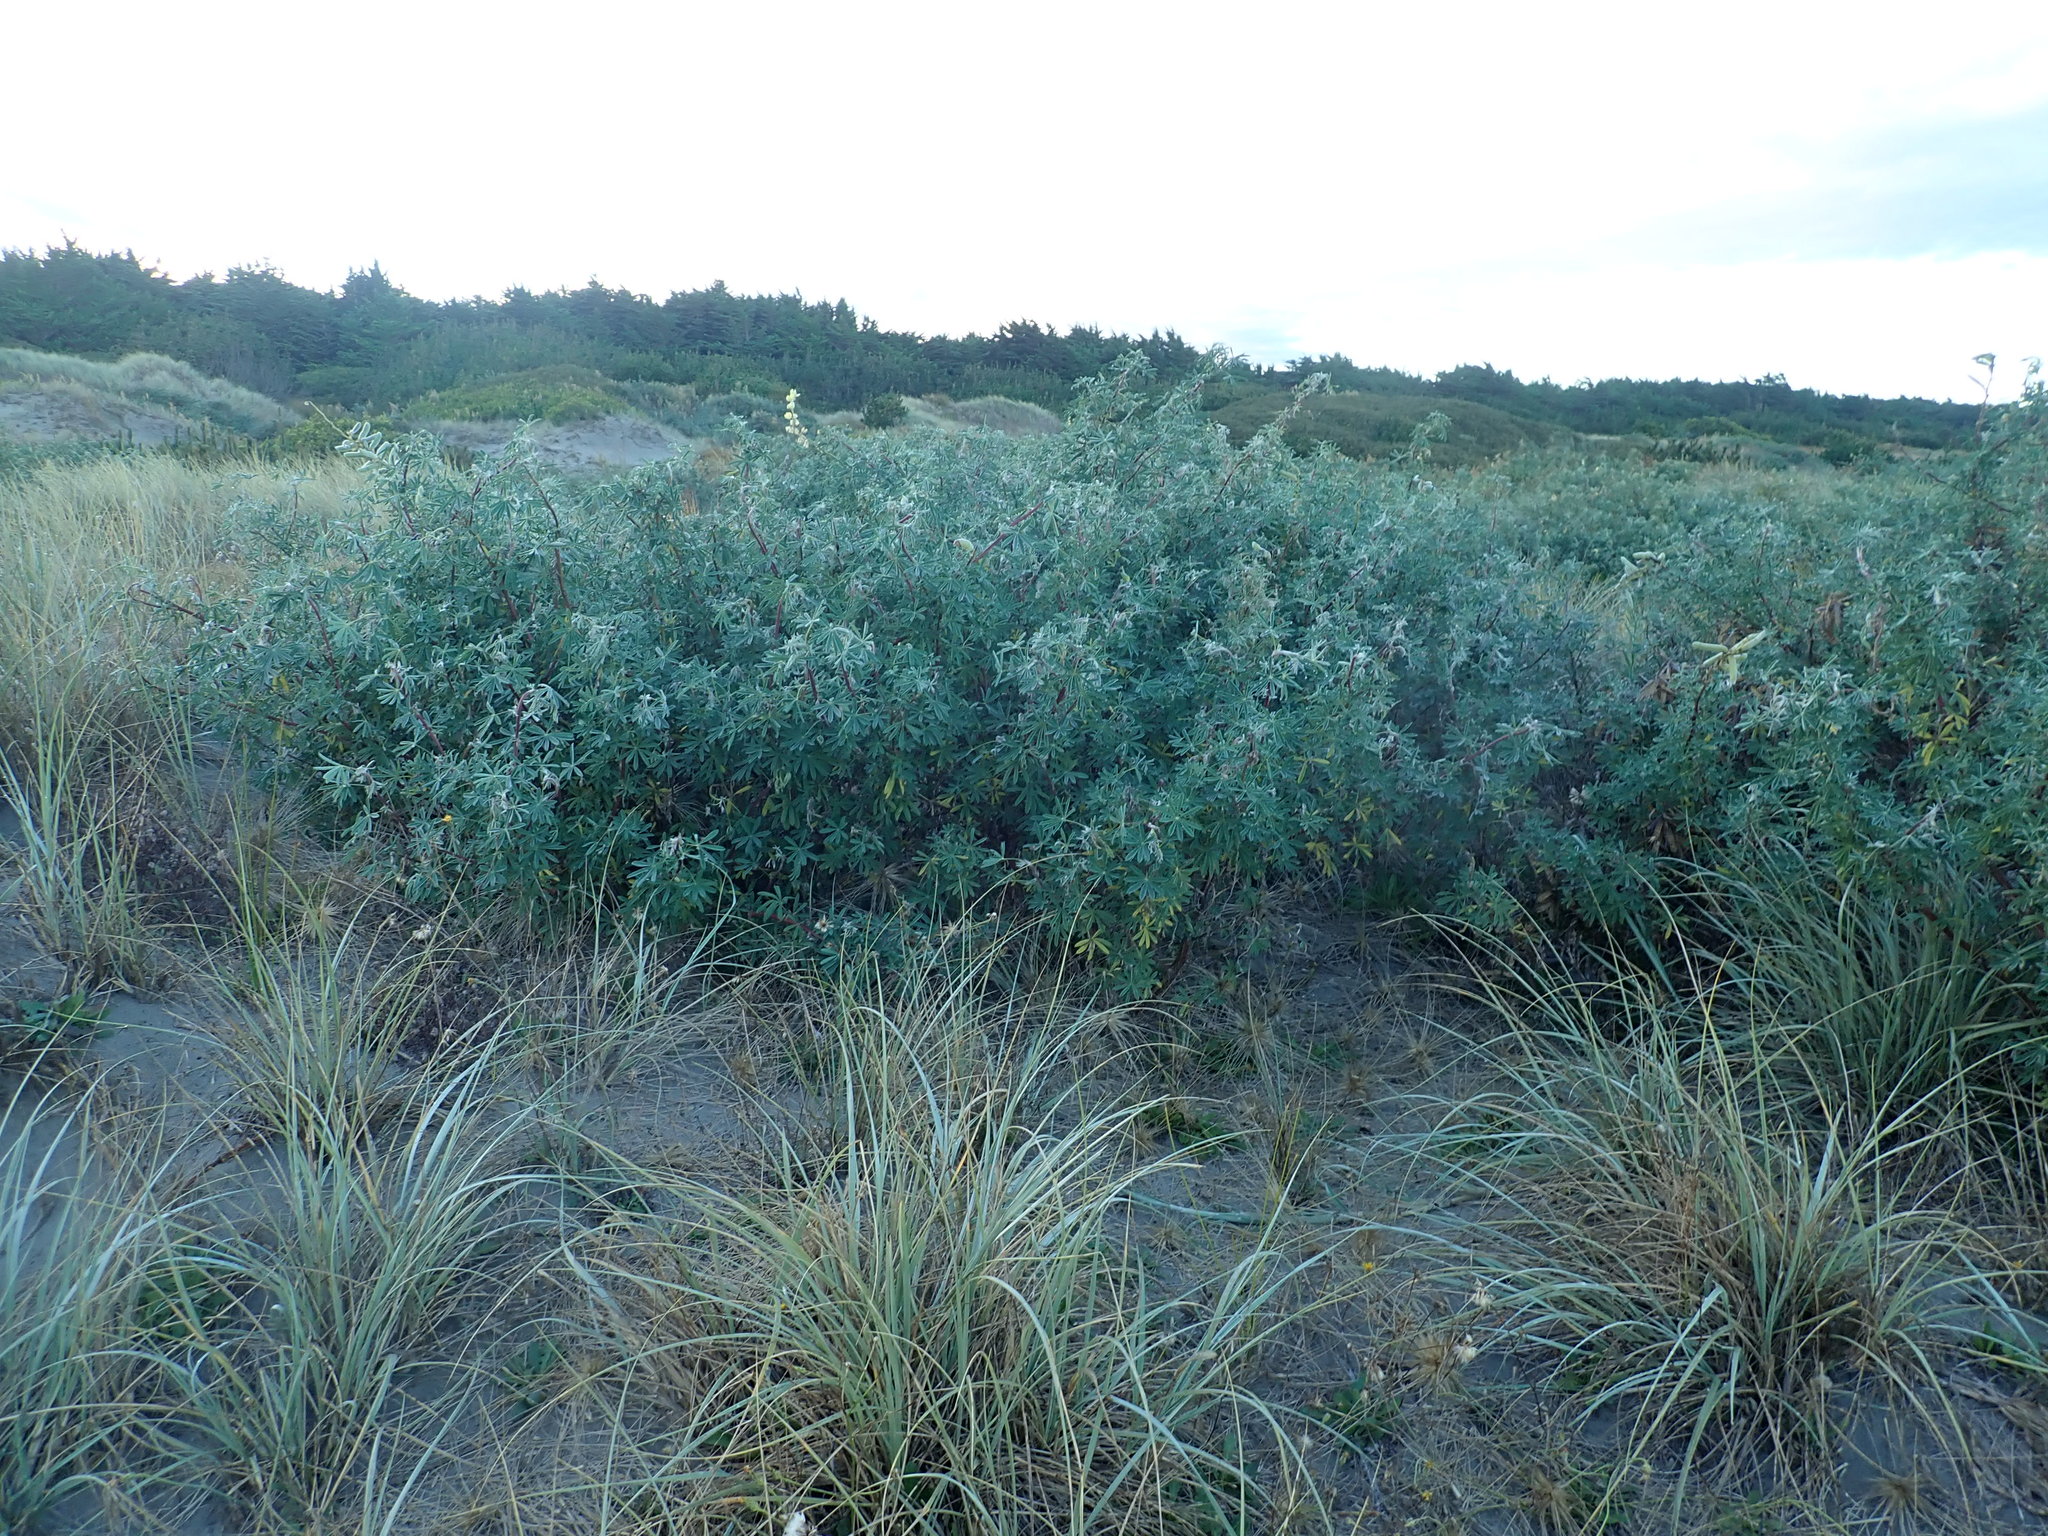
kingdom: Plantae
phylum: Tracheophyta
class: Magnoliopsida
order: Fabales
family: Fabaceae
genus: Lupinus
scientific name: Lupinus arboreus
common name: Yellow bush lupine
